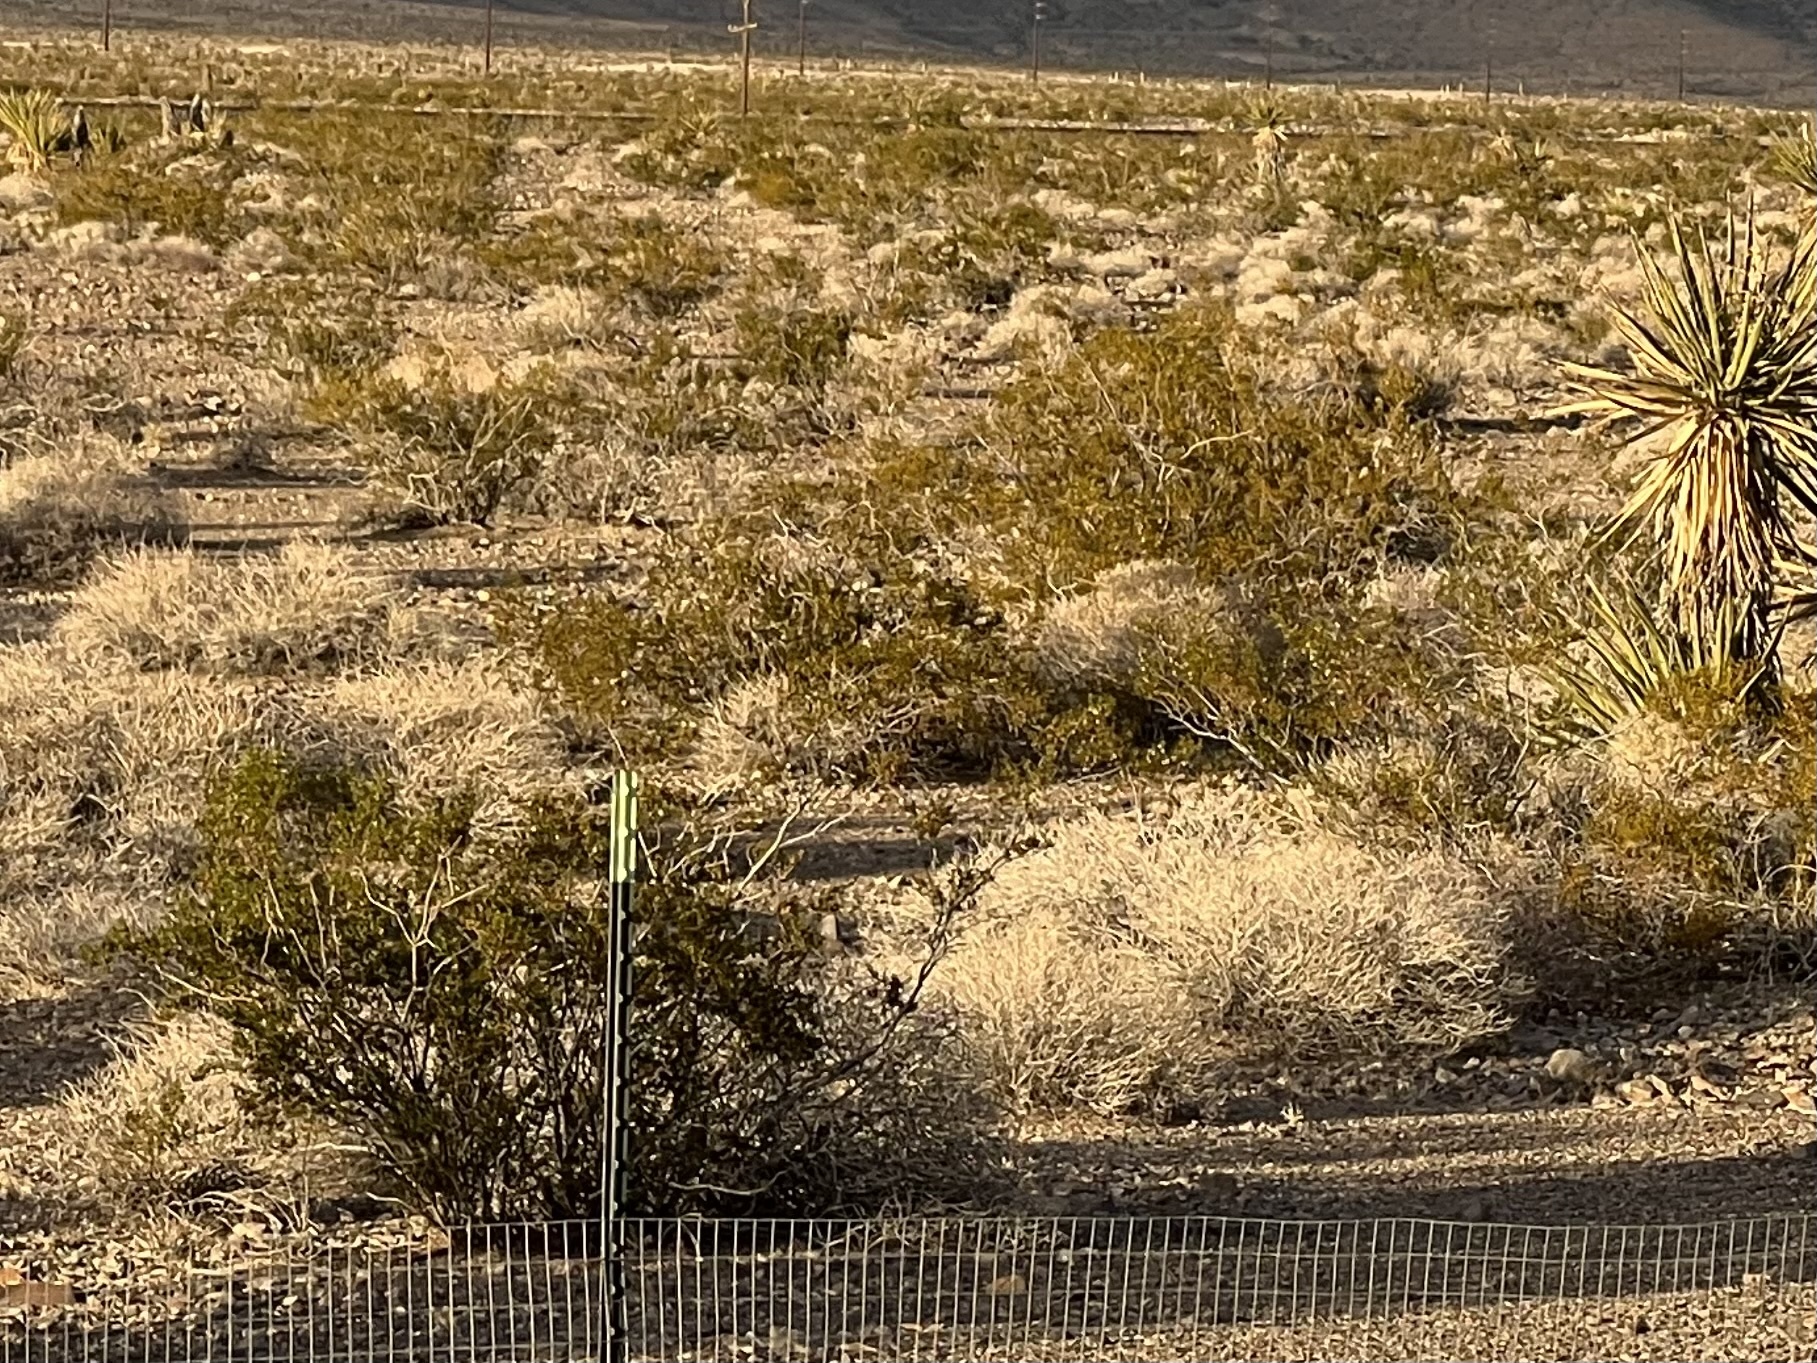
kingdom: Plantae
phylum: Tracheophyta
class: Magnoliopsida
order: Zygophyllales
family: Zygophyllaceae
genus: Larrea
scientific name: Larrea tridentata
